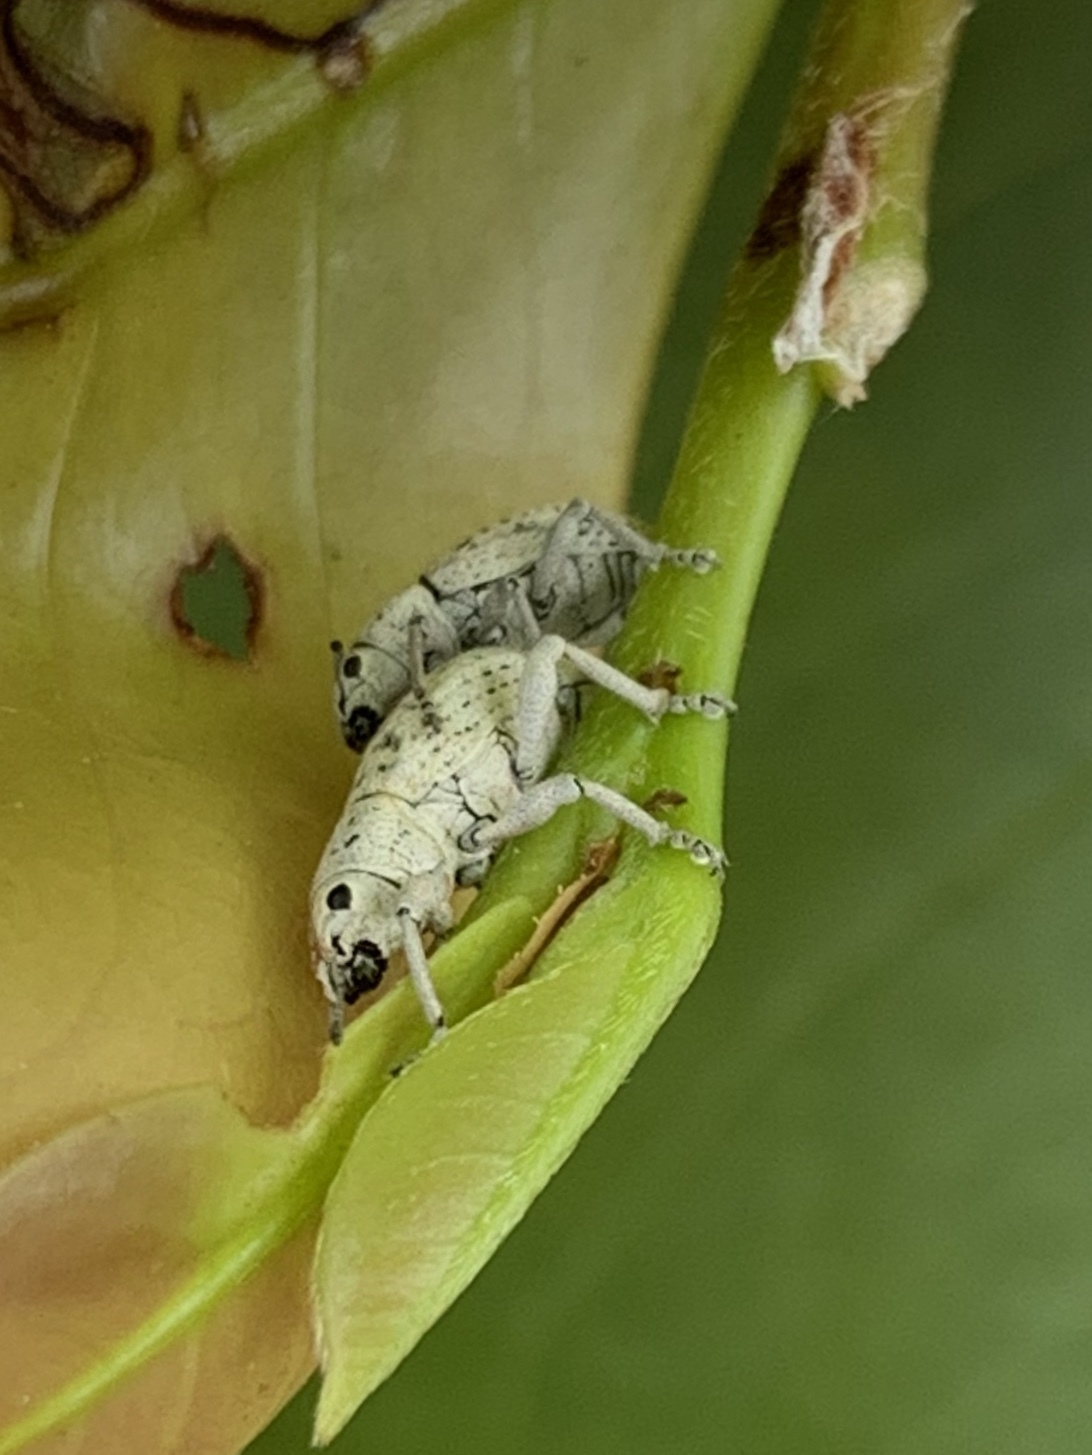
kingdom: Animalia
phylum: Arthropoda
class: Insecta
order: Coleoptera
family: Curculionidae
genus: Artipus
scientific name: Artipus floridanus
